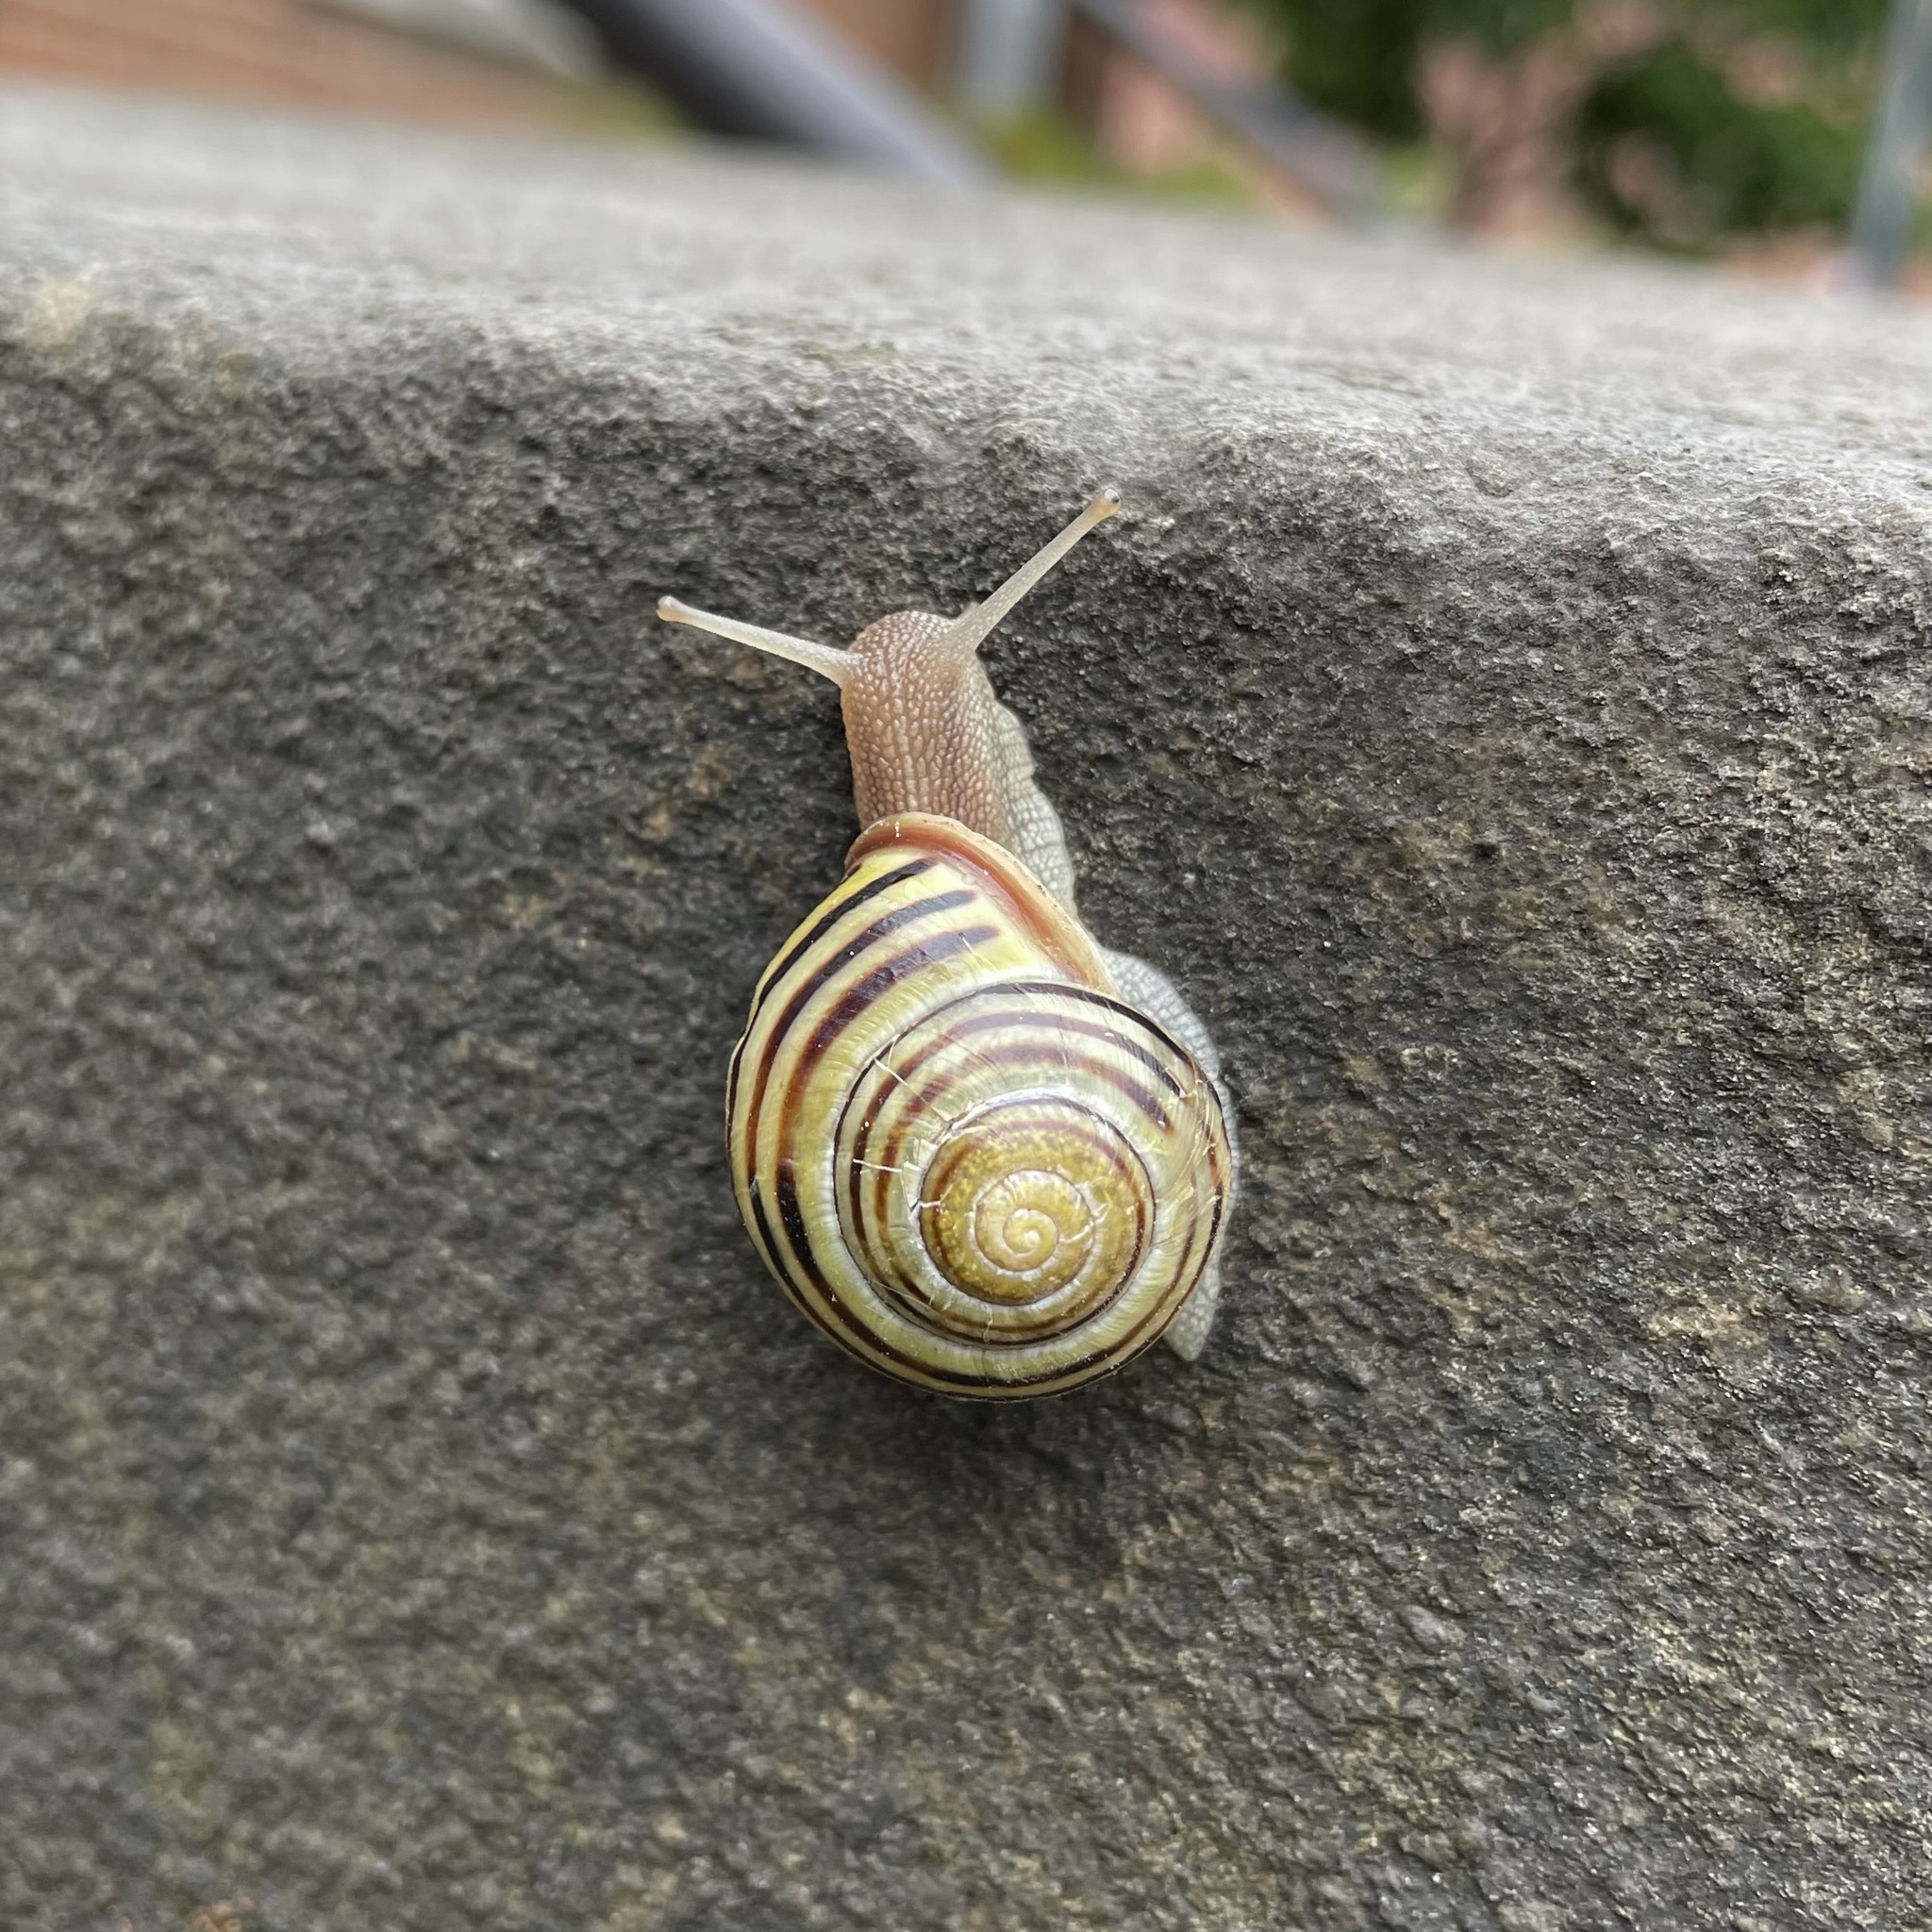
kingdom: Animalia
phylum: Mollusca
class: Gastropoda
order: Stylommatophora
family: Helicidae
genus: Cepaea
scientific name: Cepaea nemoralis
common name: Grovesnail
